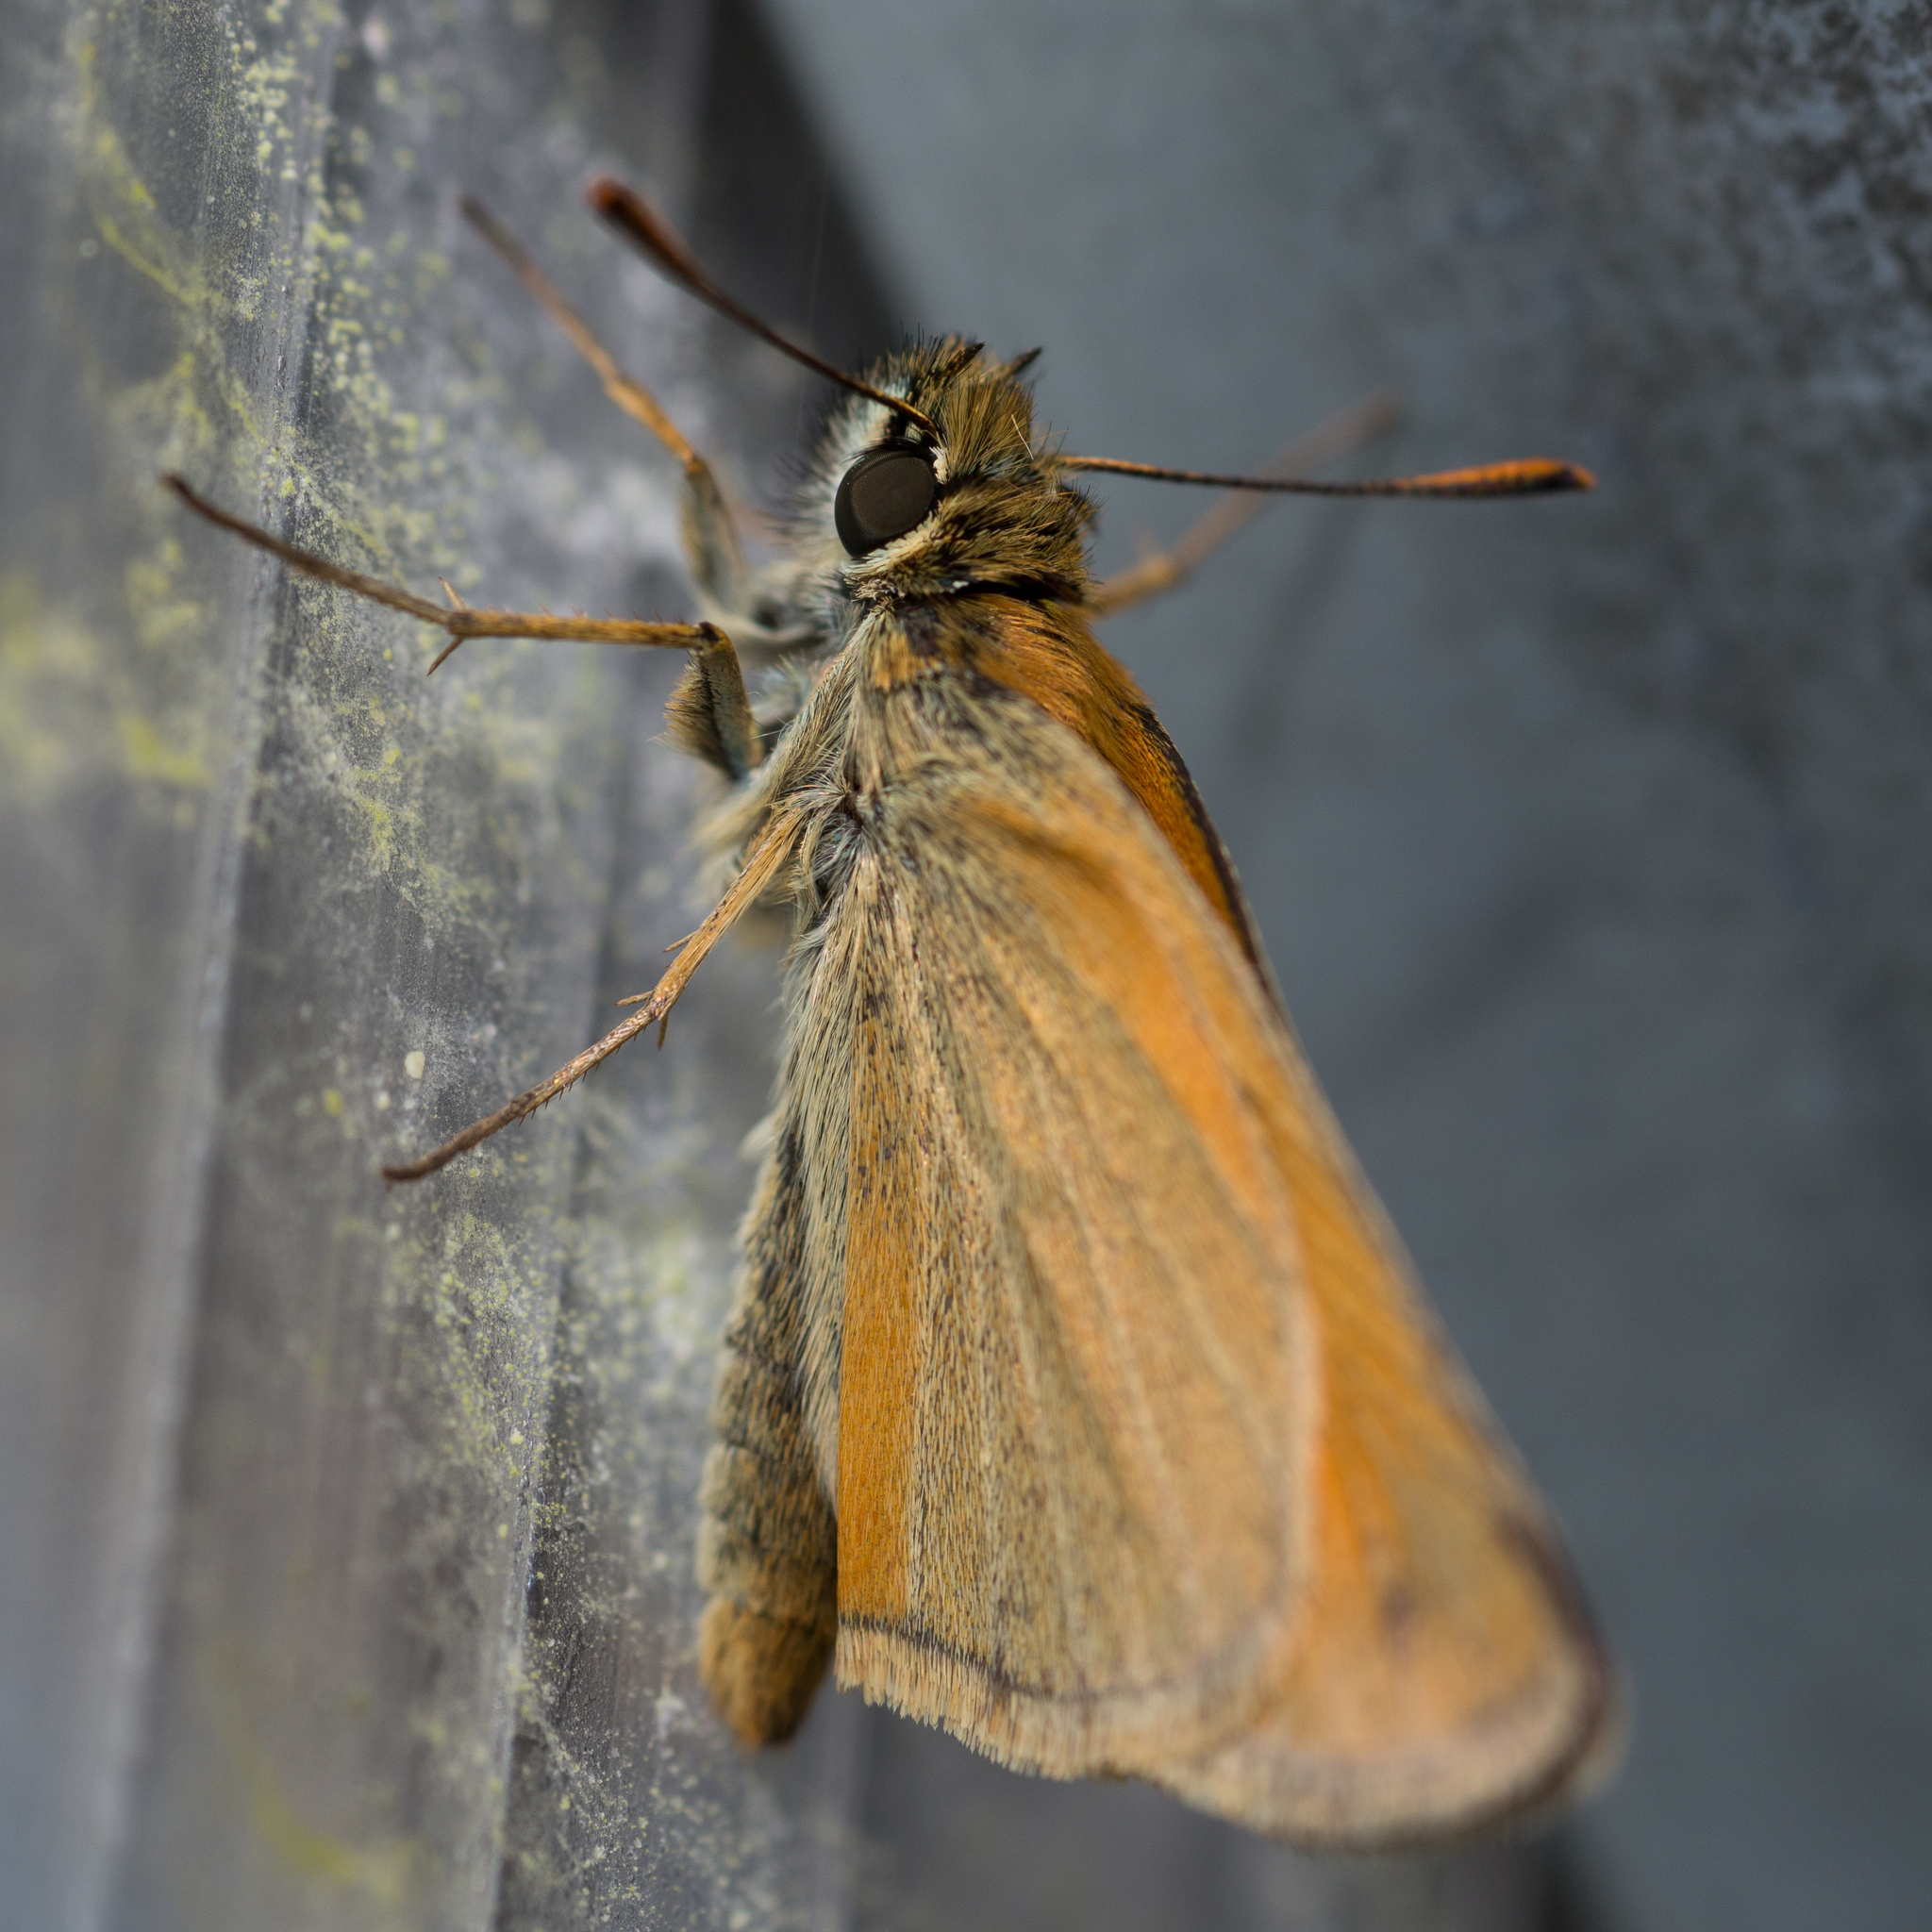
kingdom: Animalia
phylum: Arthropoda
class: Insecta
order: Lepidoptera
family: Hesperiidae
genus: Thymelicus
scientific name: Thymelicus sylvestris
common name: Small skipper
